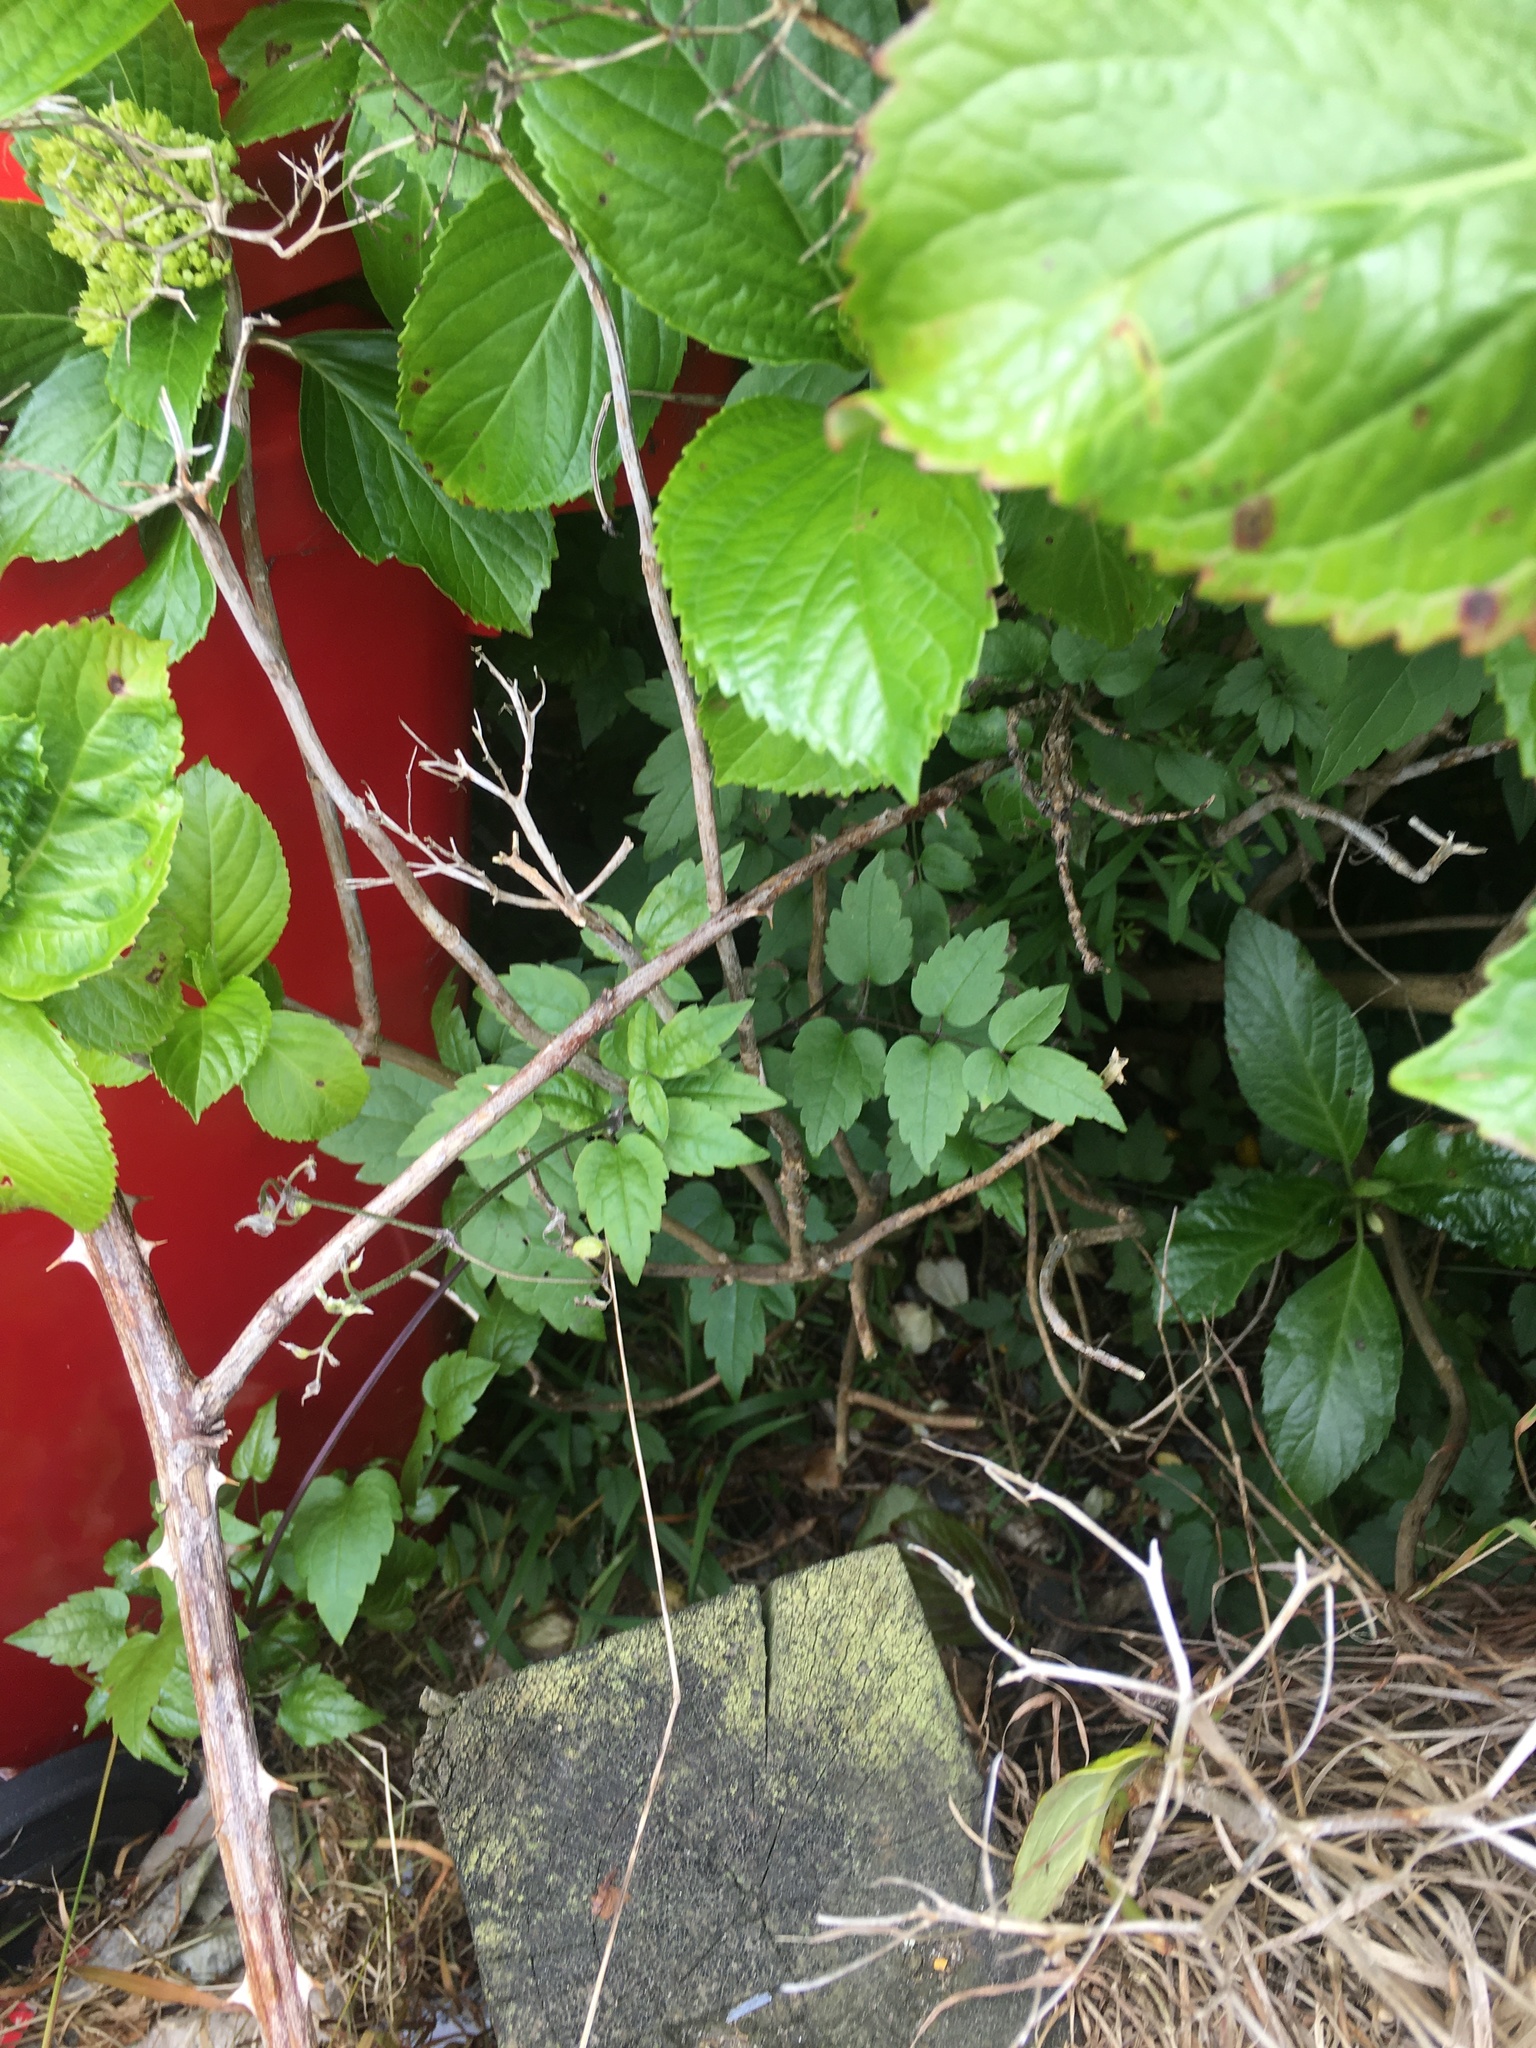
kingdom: Plantae
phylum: Tracheophyta
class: Magnoliopsida
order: Ranunculales
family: Ranunculaceae
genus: Clematis
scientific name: Clematis vitalba
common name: Evergreen clematis
